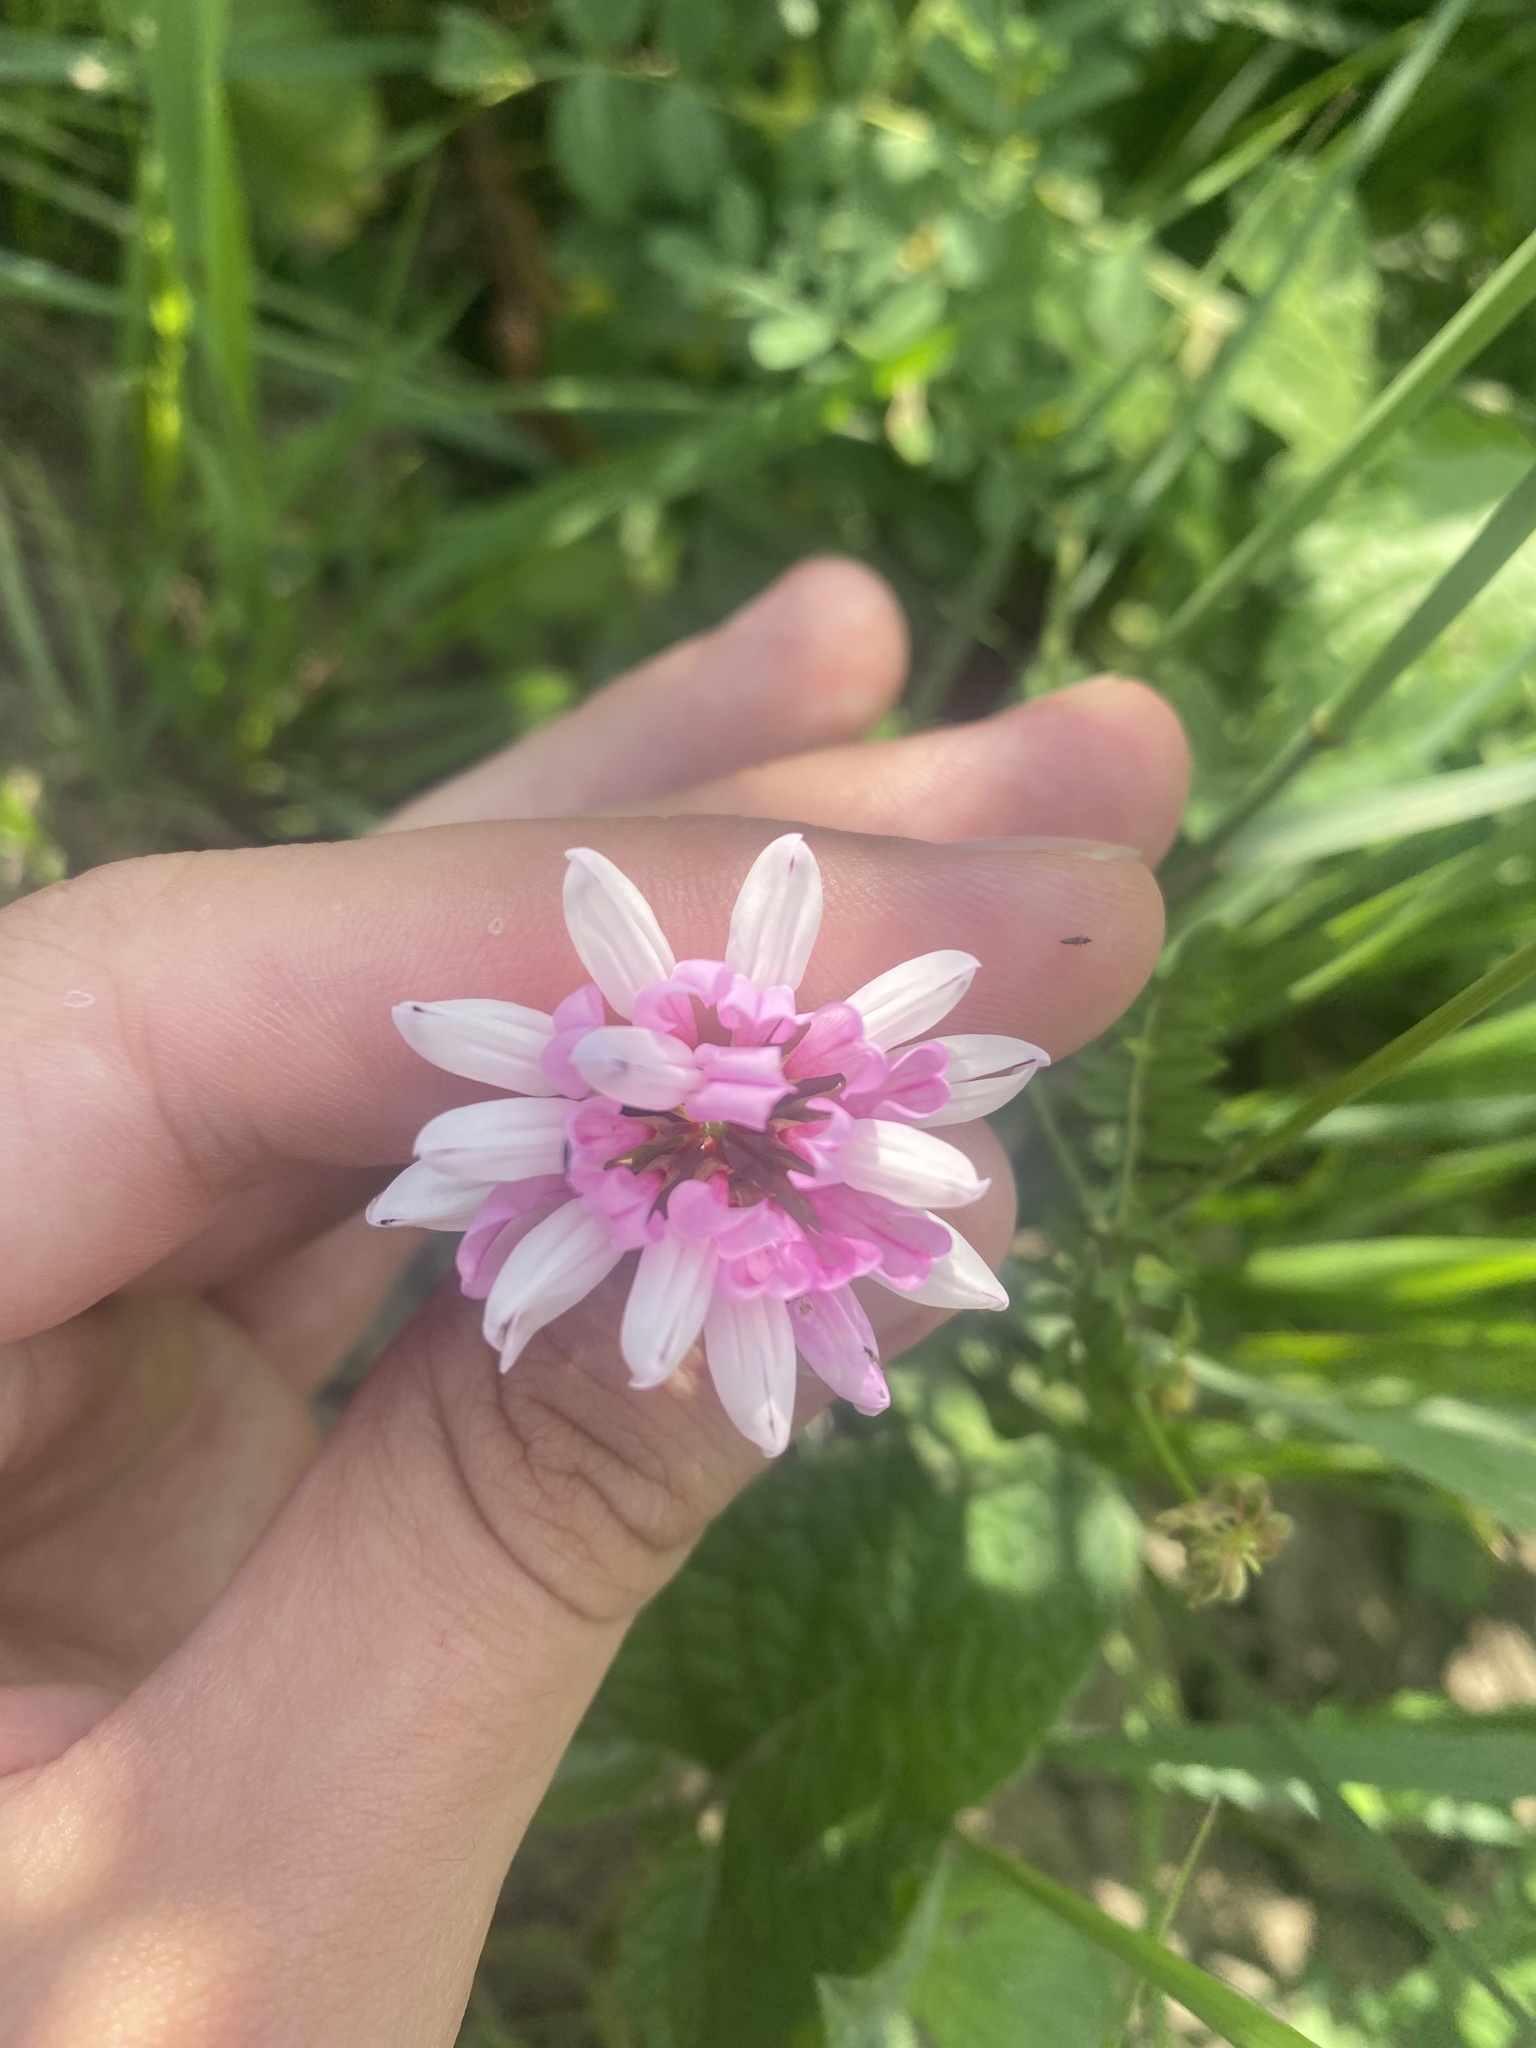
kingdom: Plantae
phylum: Tracheophyta
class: Magnoliopsida
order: Fabales
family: Fabaceae
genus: Coronilla
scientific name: Coronilla varia
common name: Crownvetch
